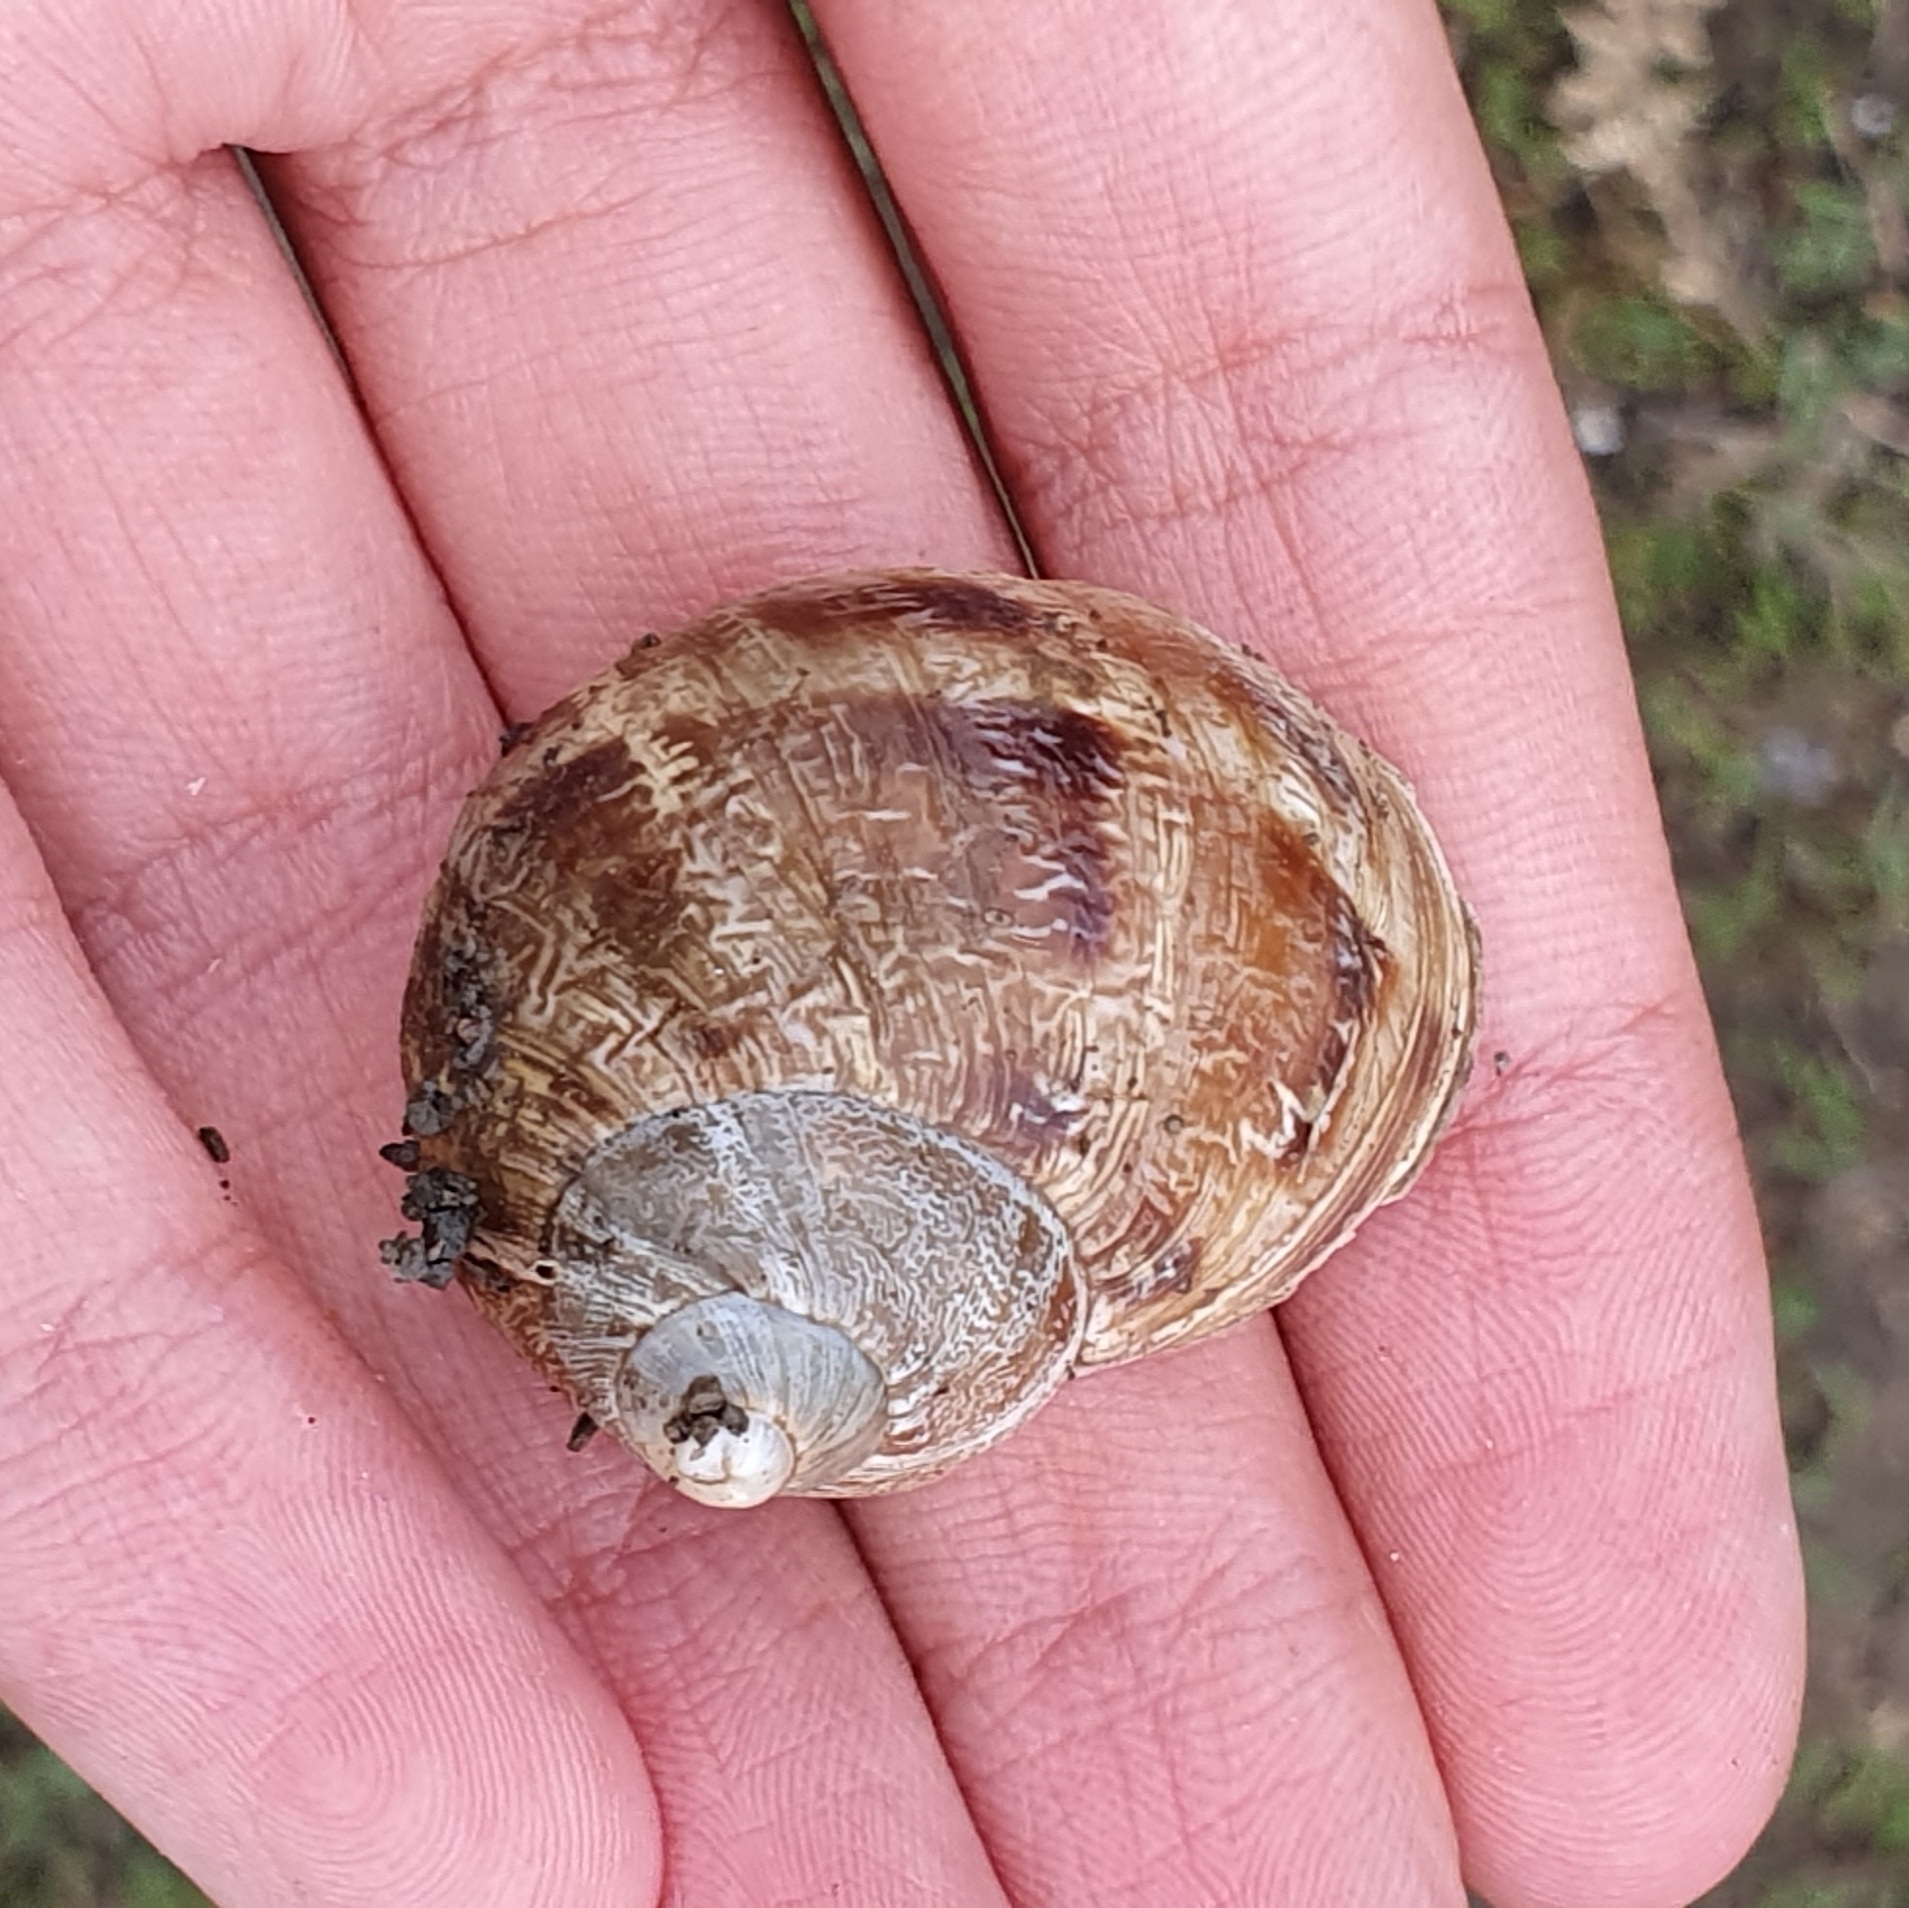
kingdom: Animalia
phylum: Mollusca
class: Gastropoda
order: Stylommatophora
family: Helicidae
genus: Cornu
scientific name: Cornu aspersum
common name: Brown garden snail
